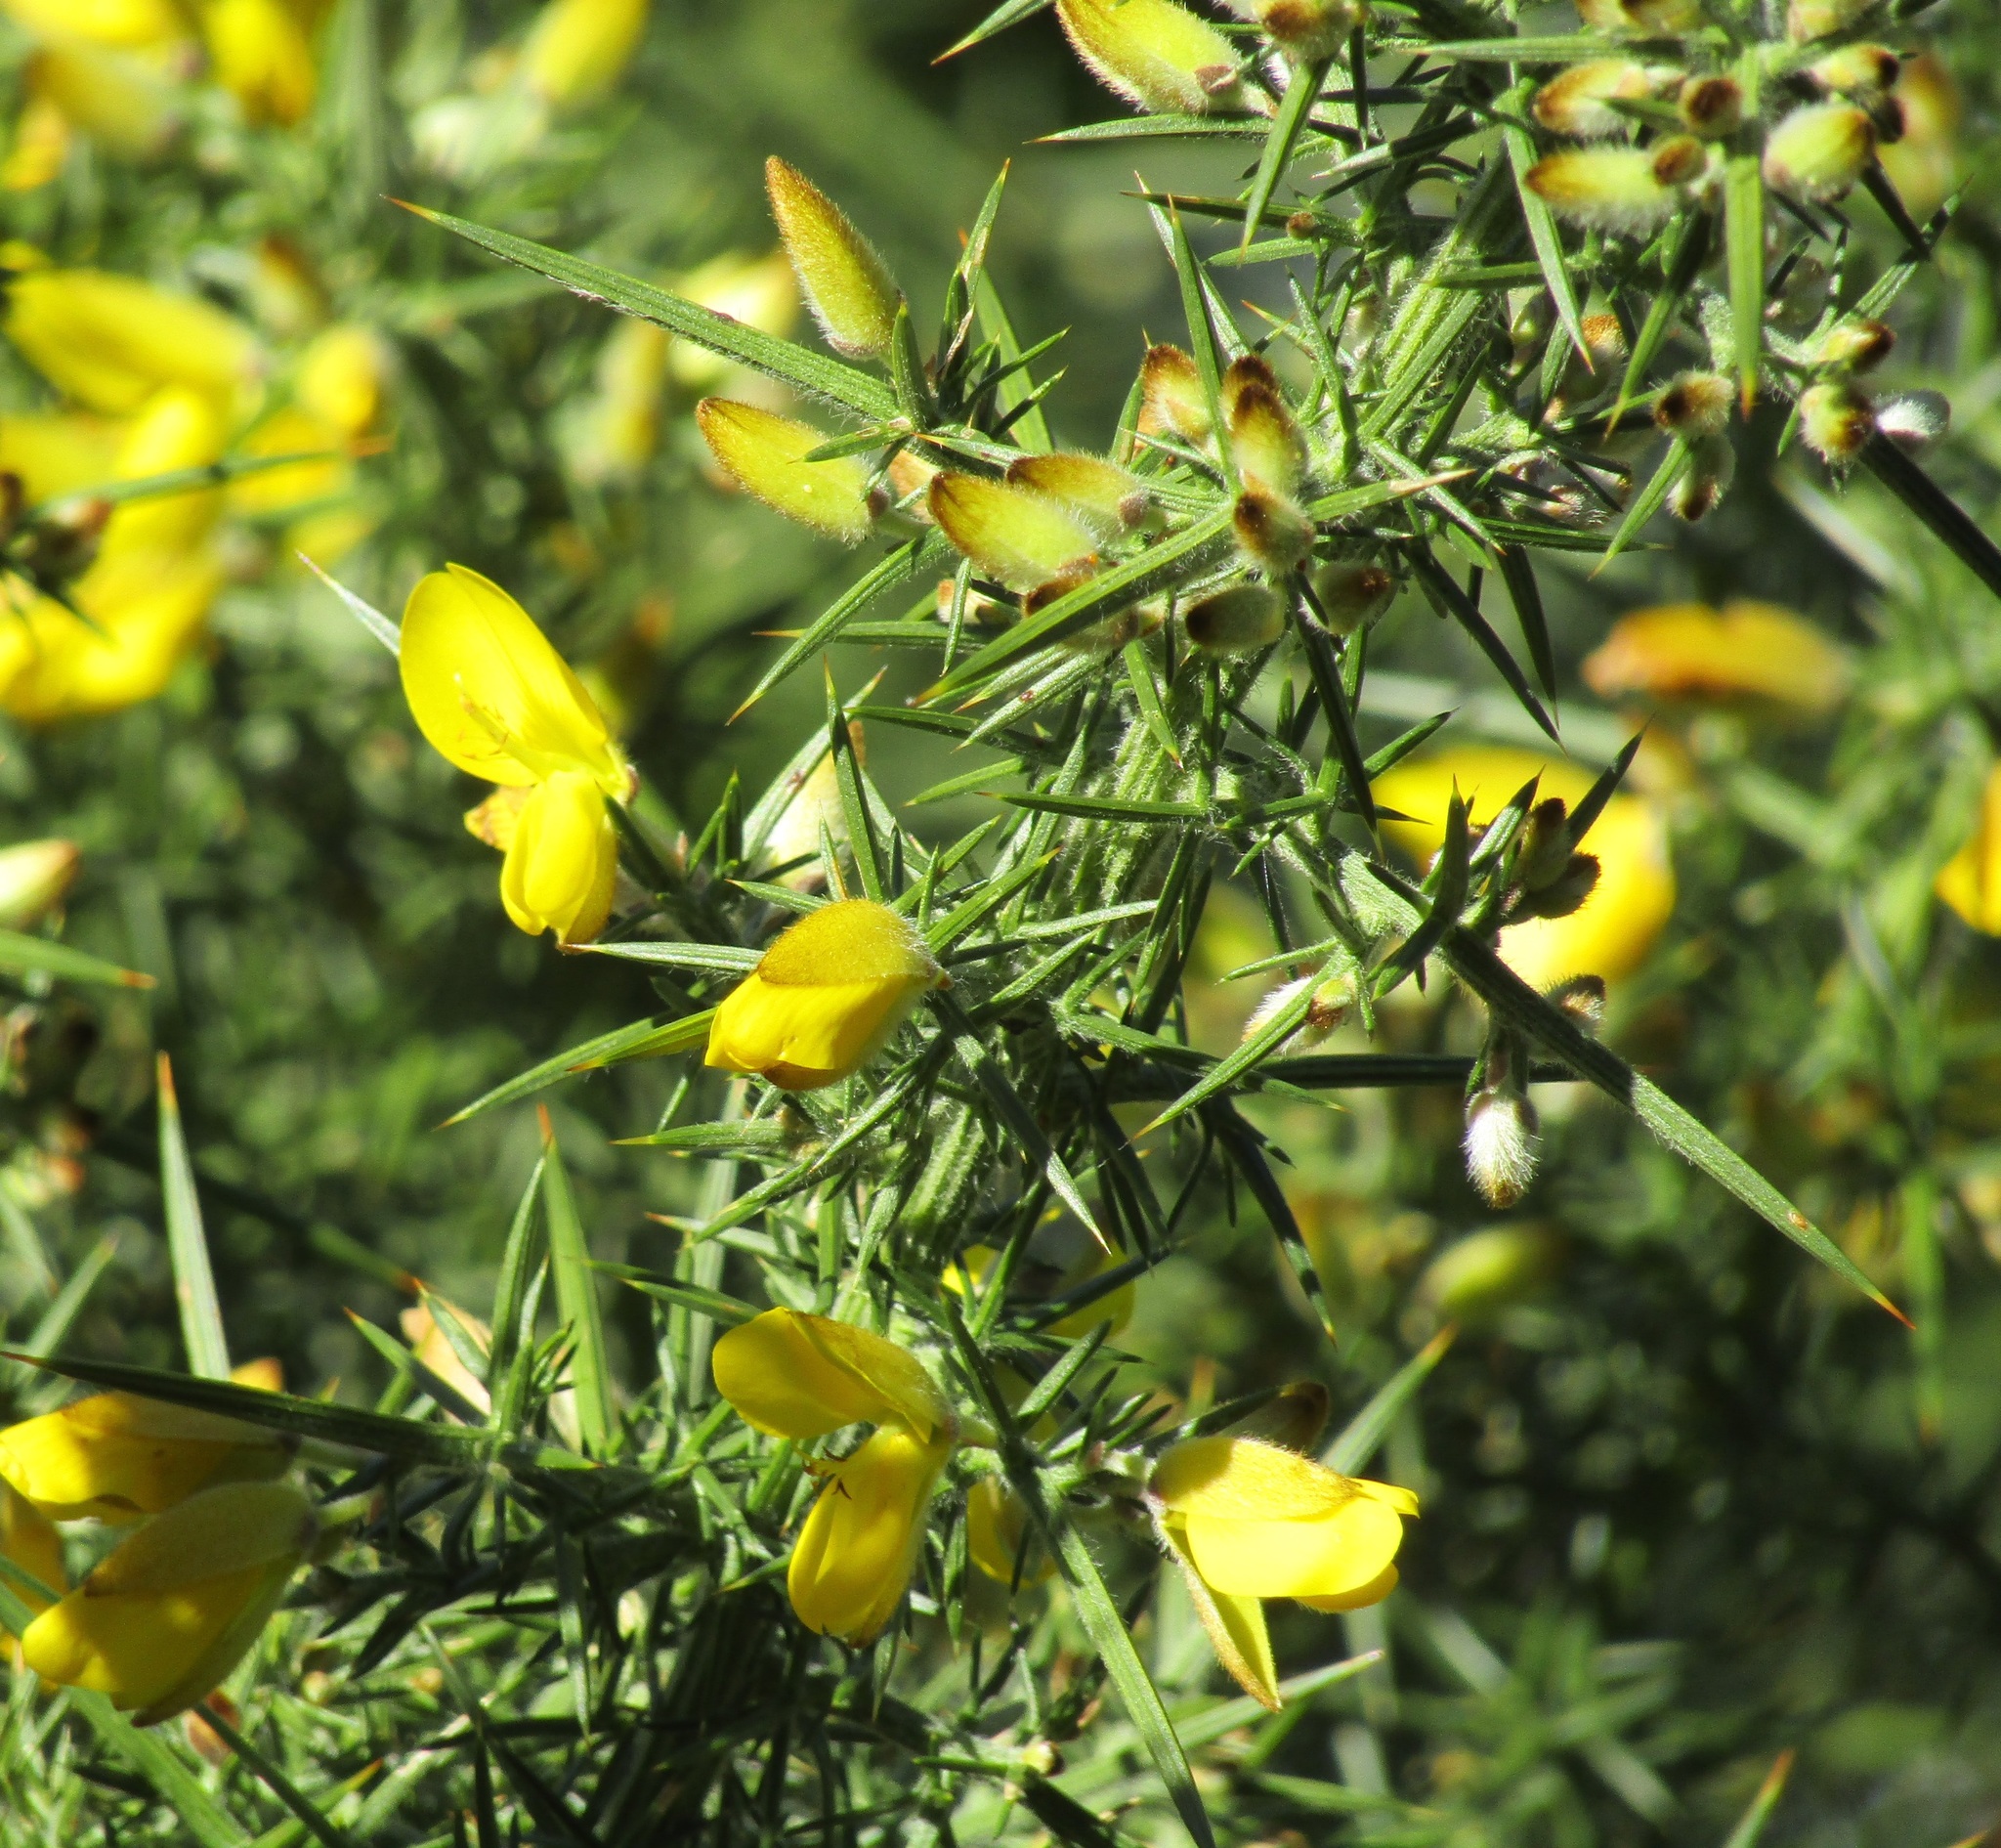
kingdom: Plantae
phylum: Tracheophyta
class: Magnoliopsida
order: Fabales
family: Fabaceae
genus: Ulex
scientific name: Ulex europaeus
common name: Common gorse
